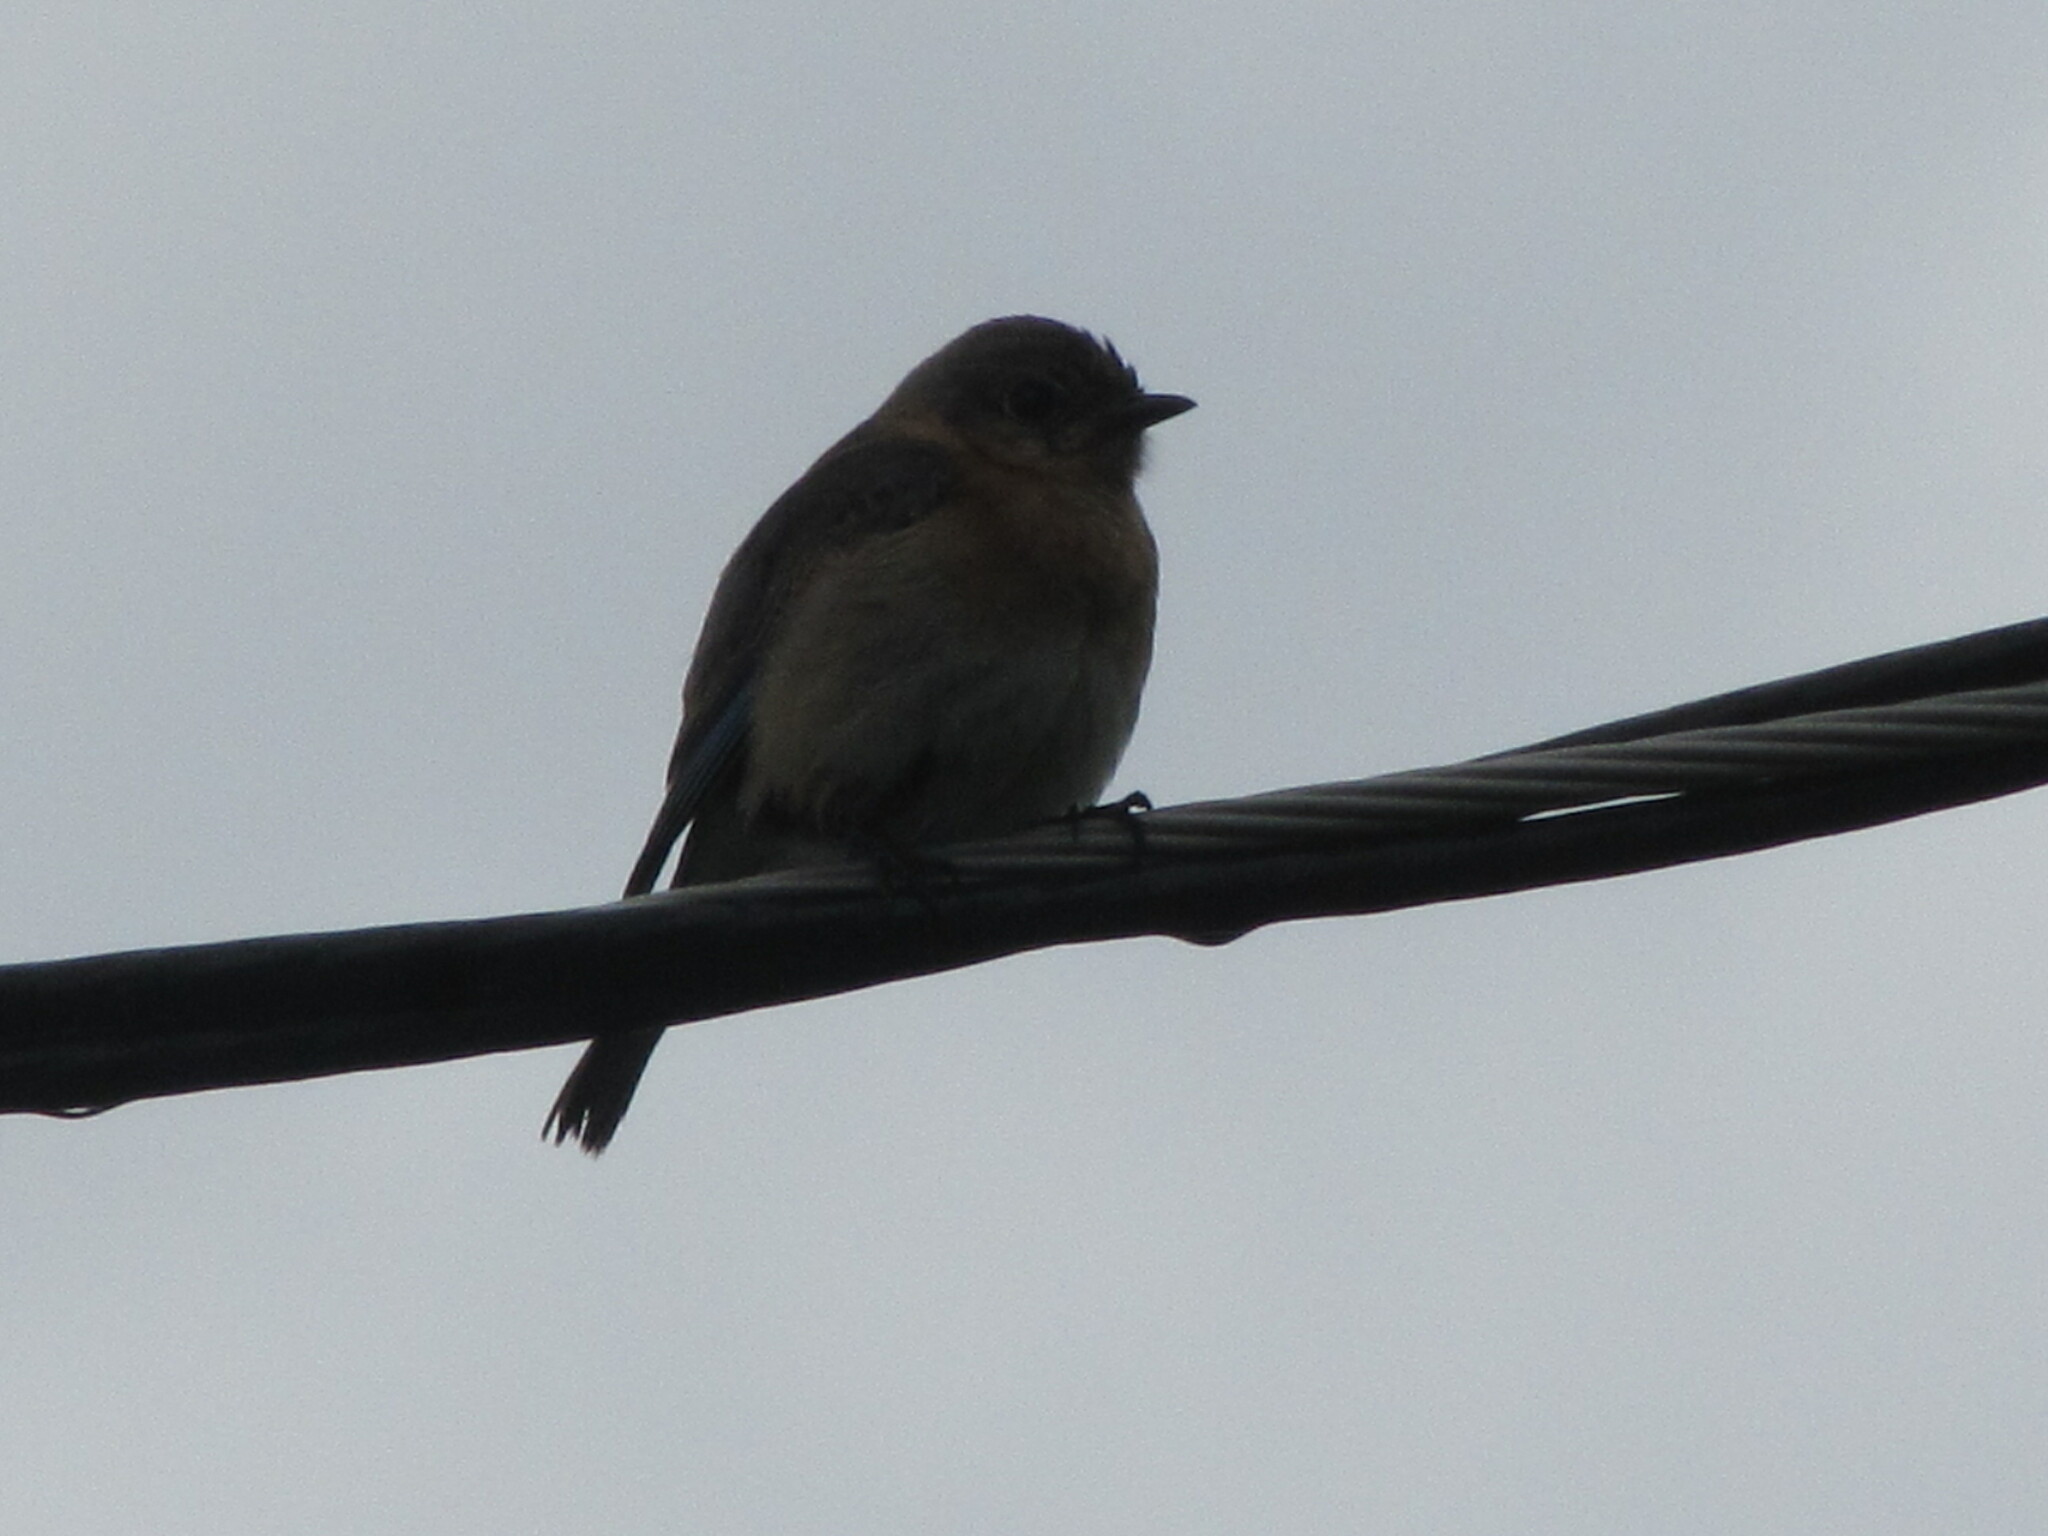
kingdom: Animalia
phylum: Chordata
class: Aves
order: Passeriformes
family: Turdidae
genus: Sialia
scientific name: Sialia sialis
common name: Eastern bluebird
